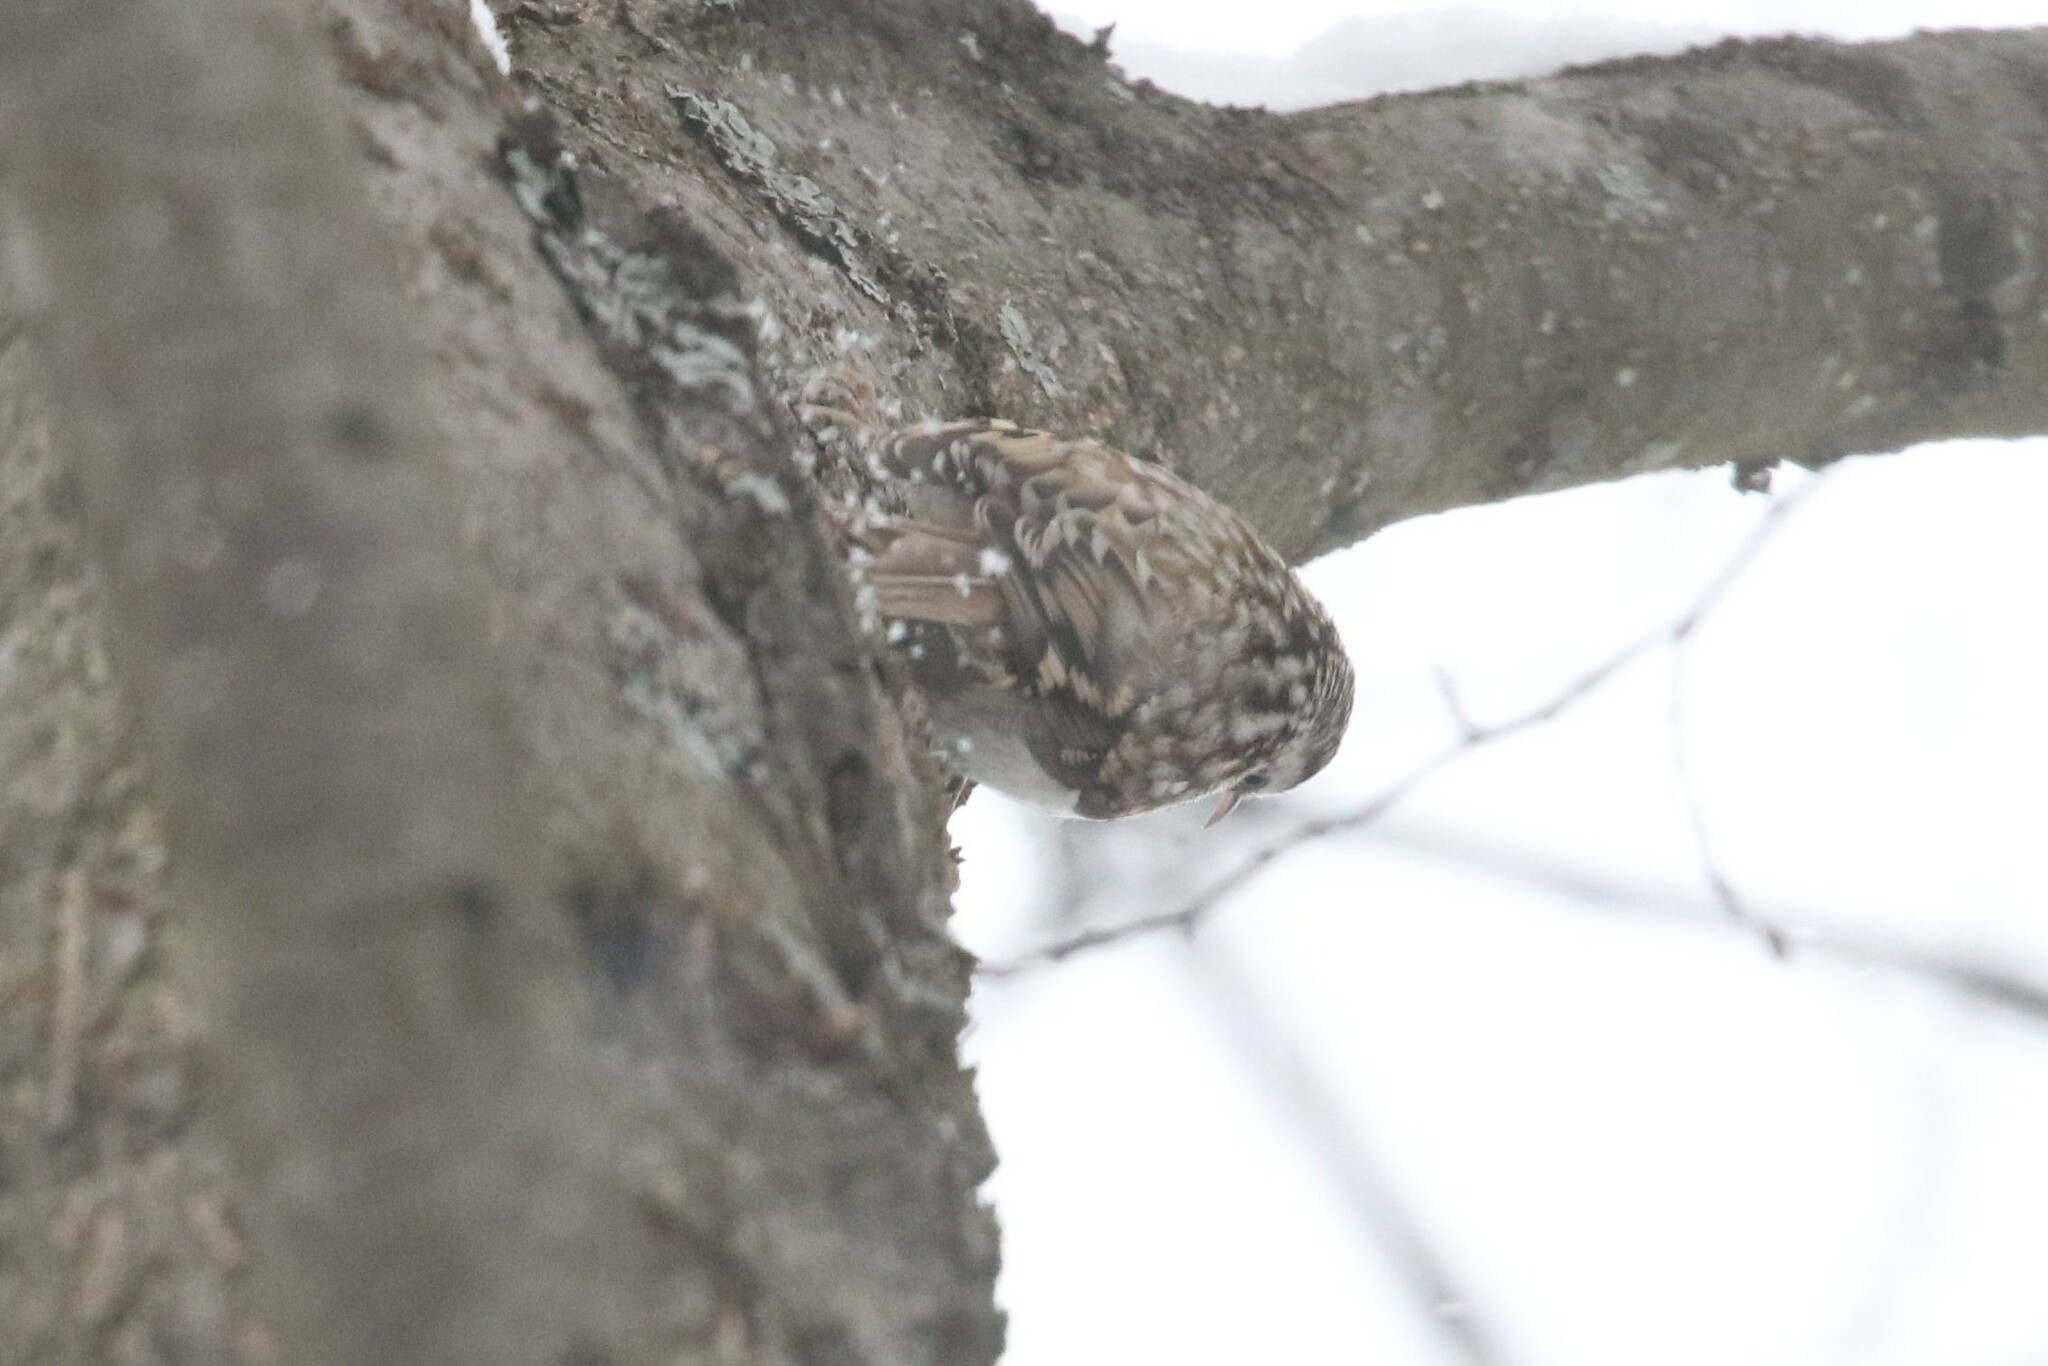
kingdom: Animalia
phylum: Chordata
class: Aves
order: Passeriformes
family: Certhiidae
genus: Certhia
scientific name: Certhia familiaris
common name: Eurasian treecreeper
